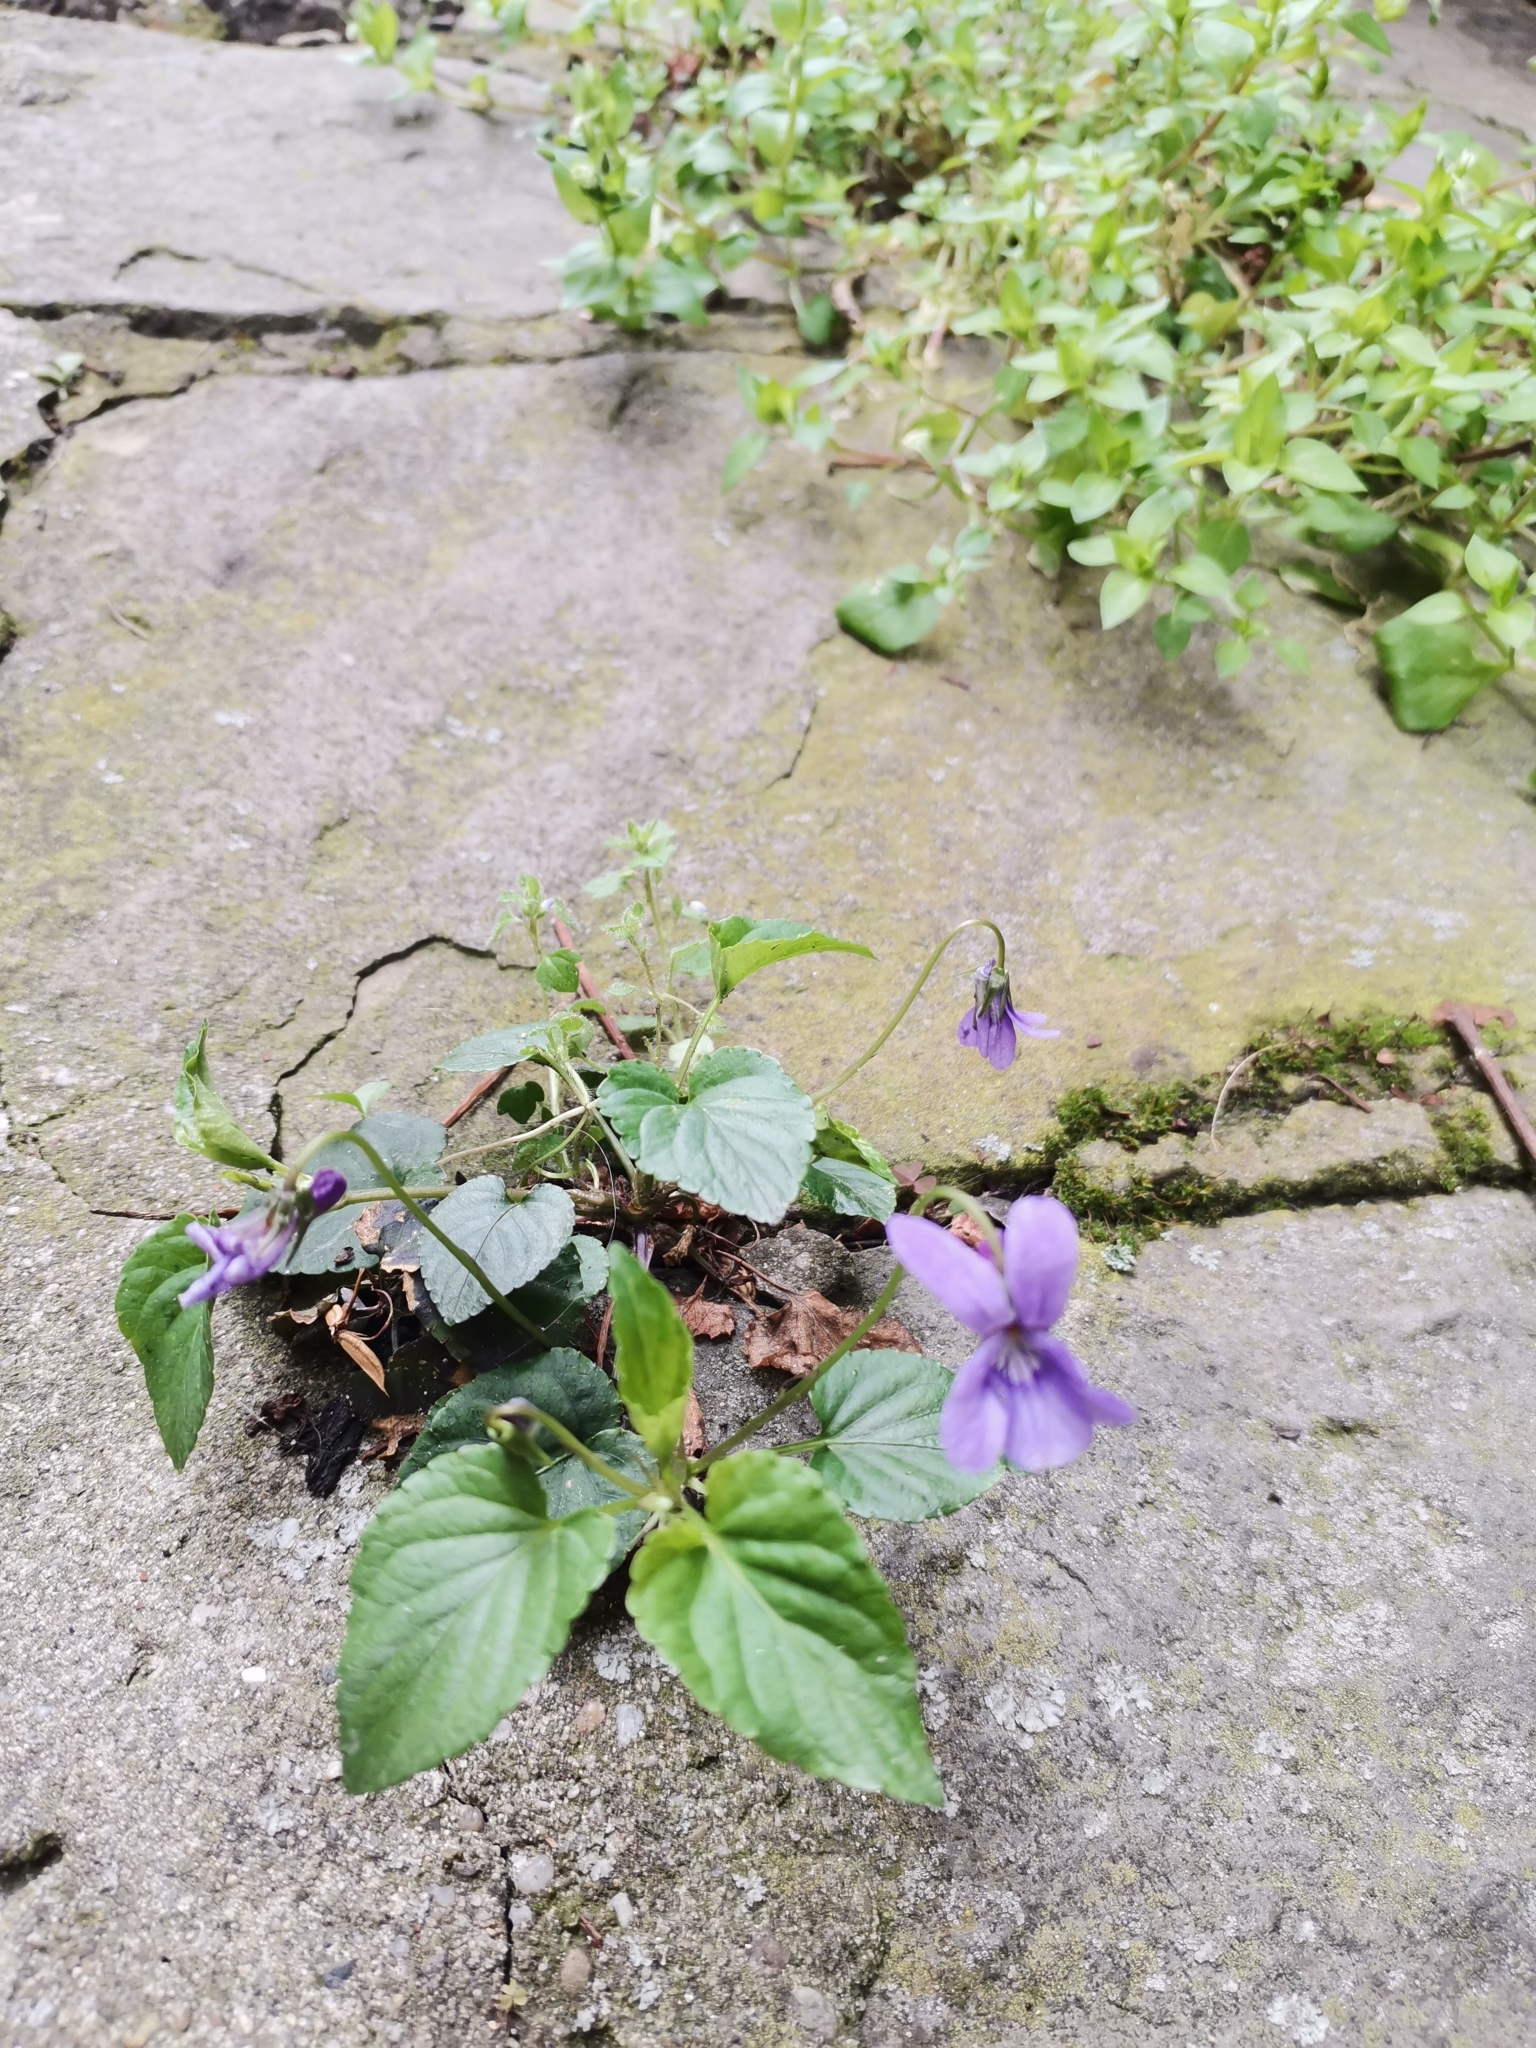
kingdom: Plantae
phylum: Tracheophyta
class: Magnoliopsida
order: Malpighiales
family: Violaceae
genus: Viola
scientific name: Viola reichenbachiana
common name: Early dog-violet
